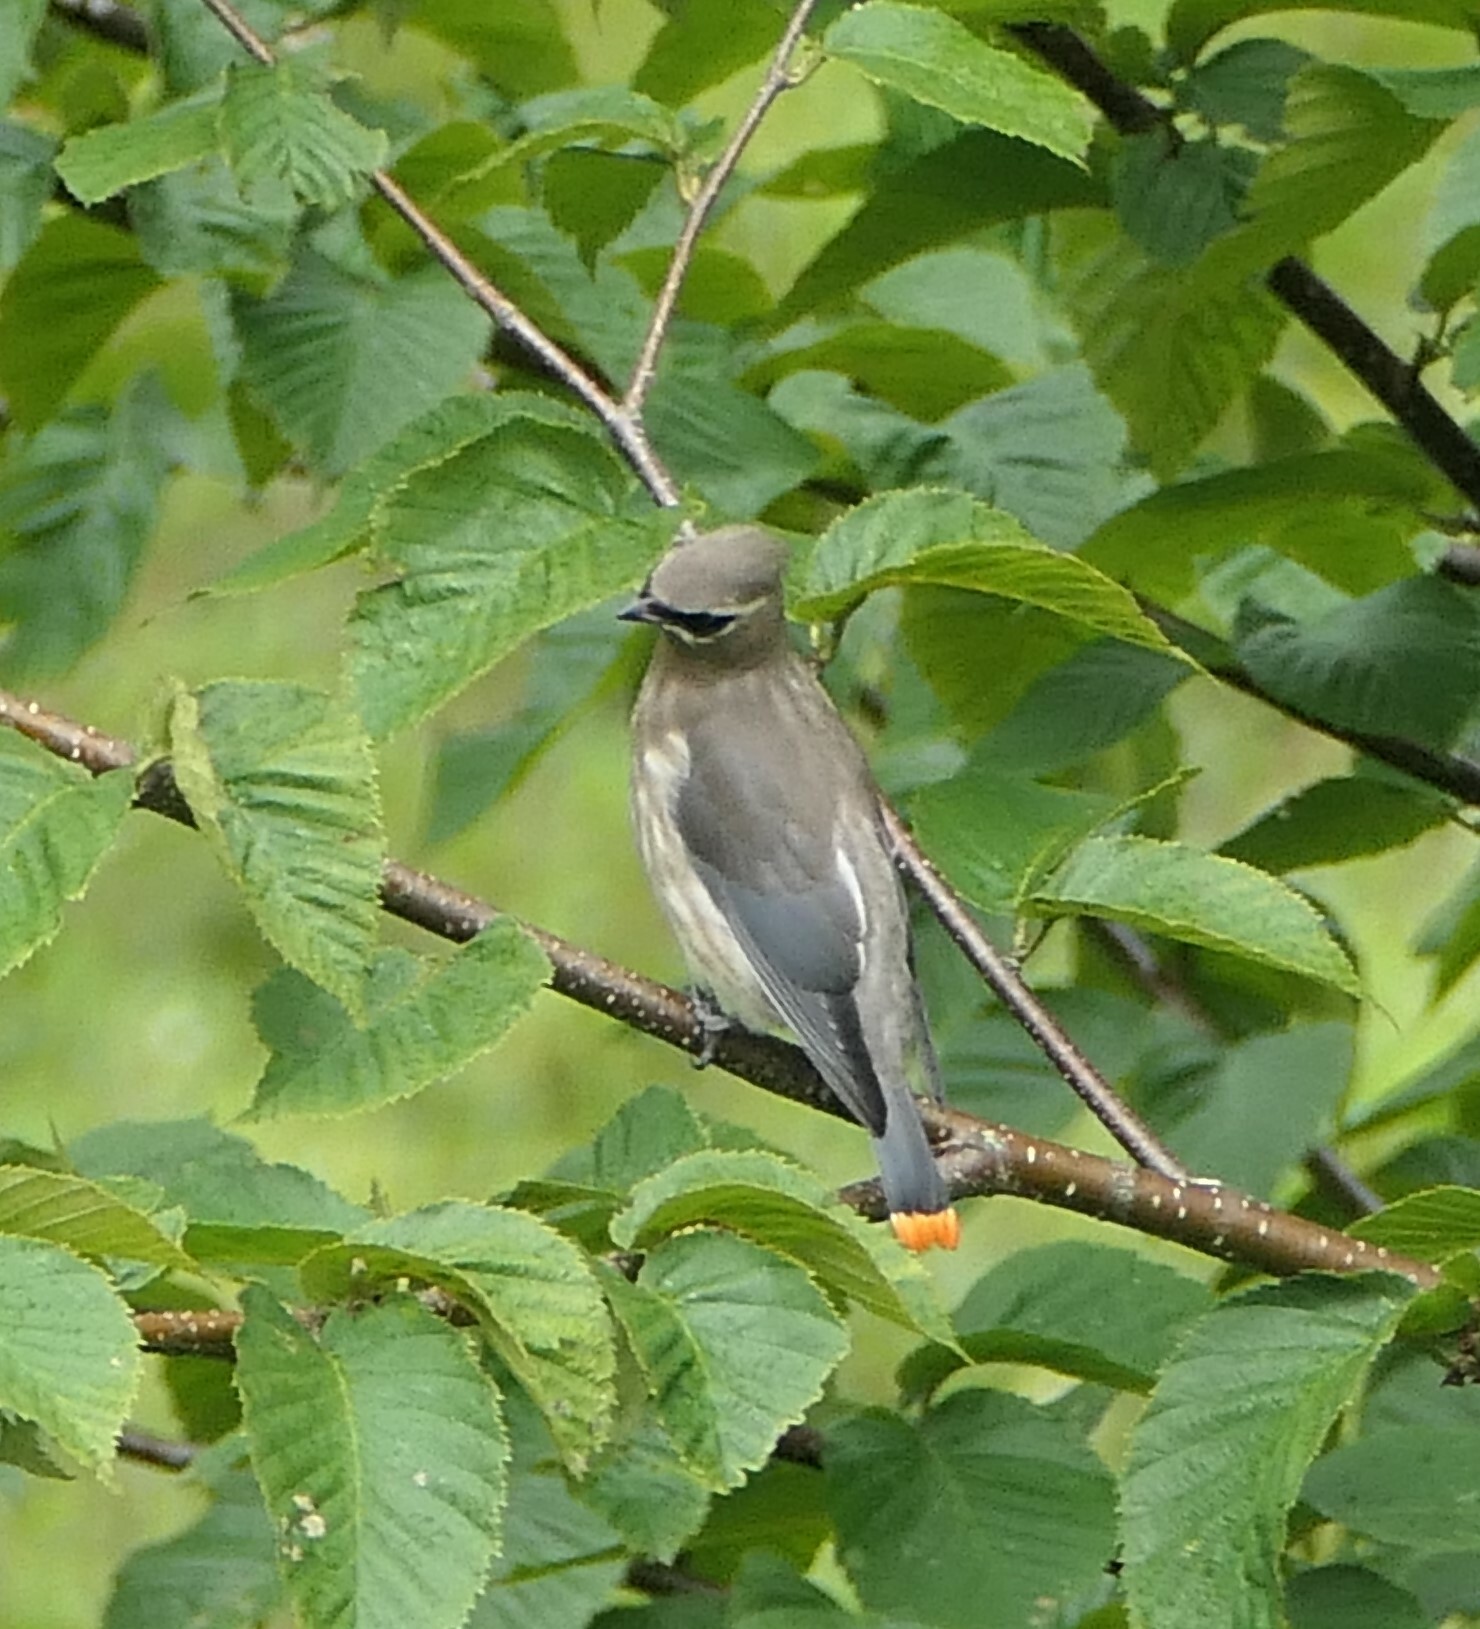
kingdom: Animalia
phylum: Chordata
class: Aves
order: Passeriformes
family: Bombycillidae
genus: Bombycilla
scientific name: Bombycilla cedrorum
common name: Cedar waxwing
